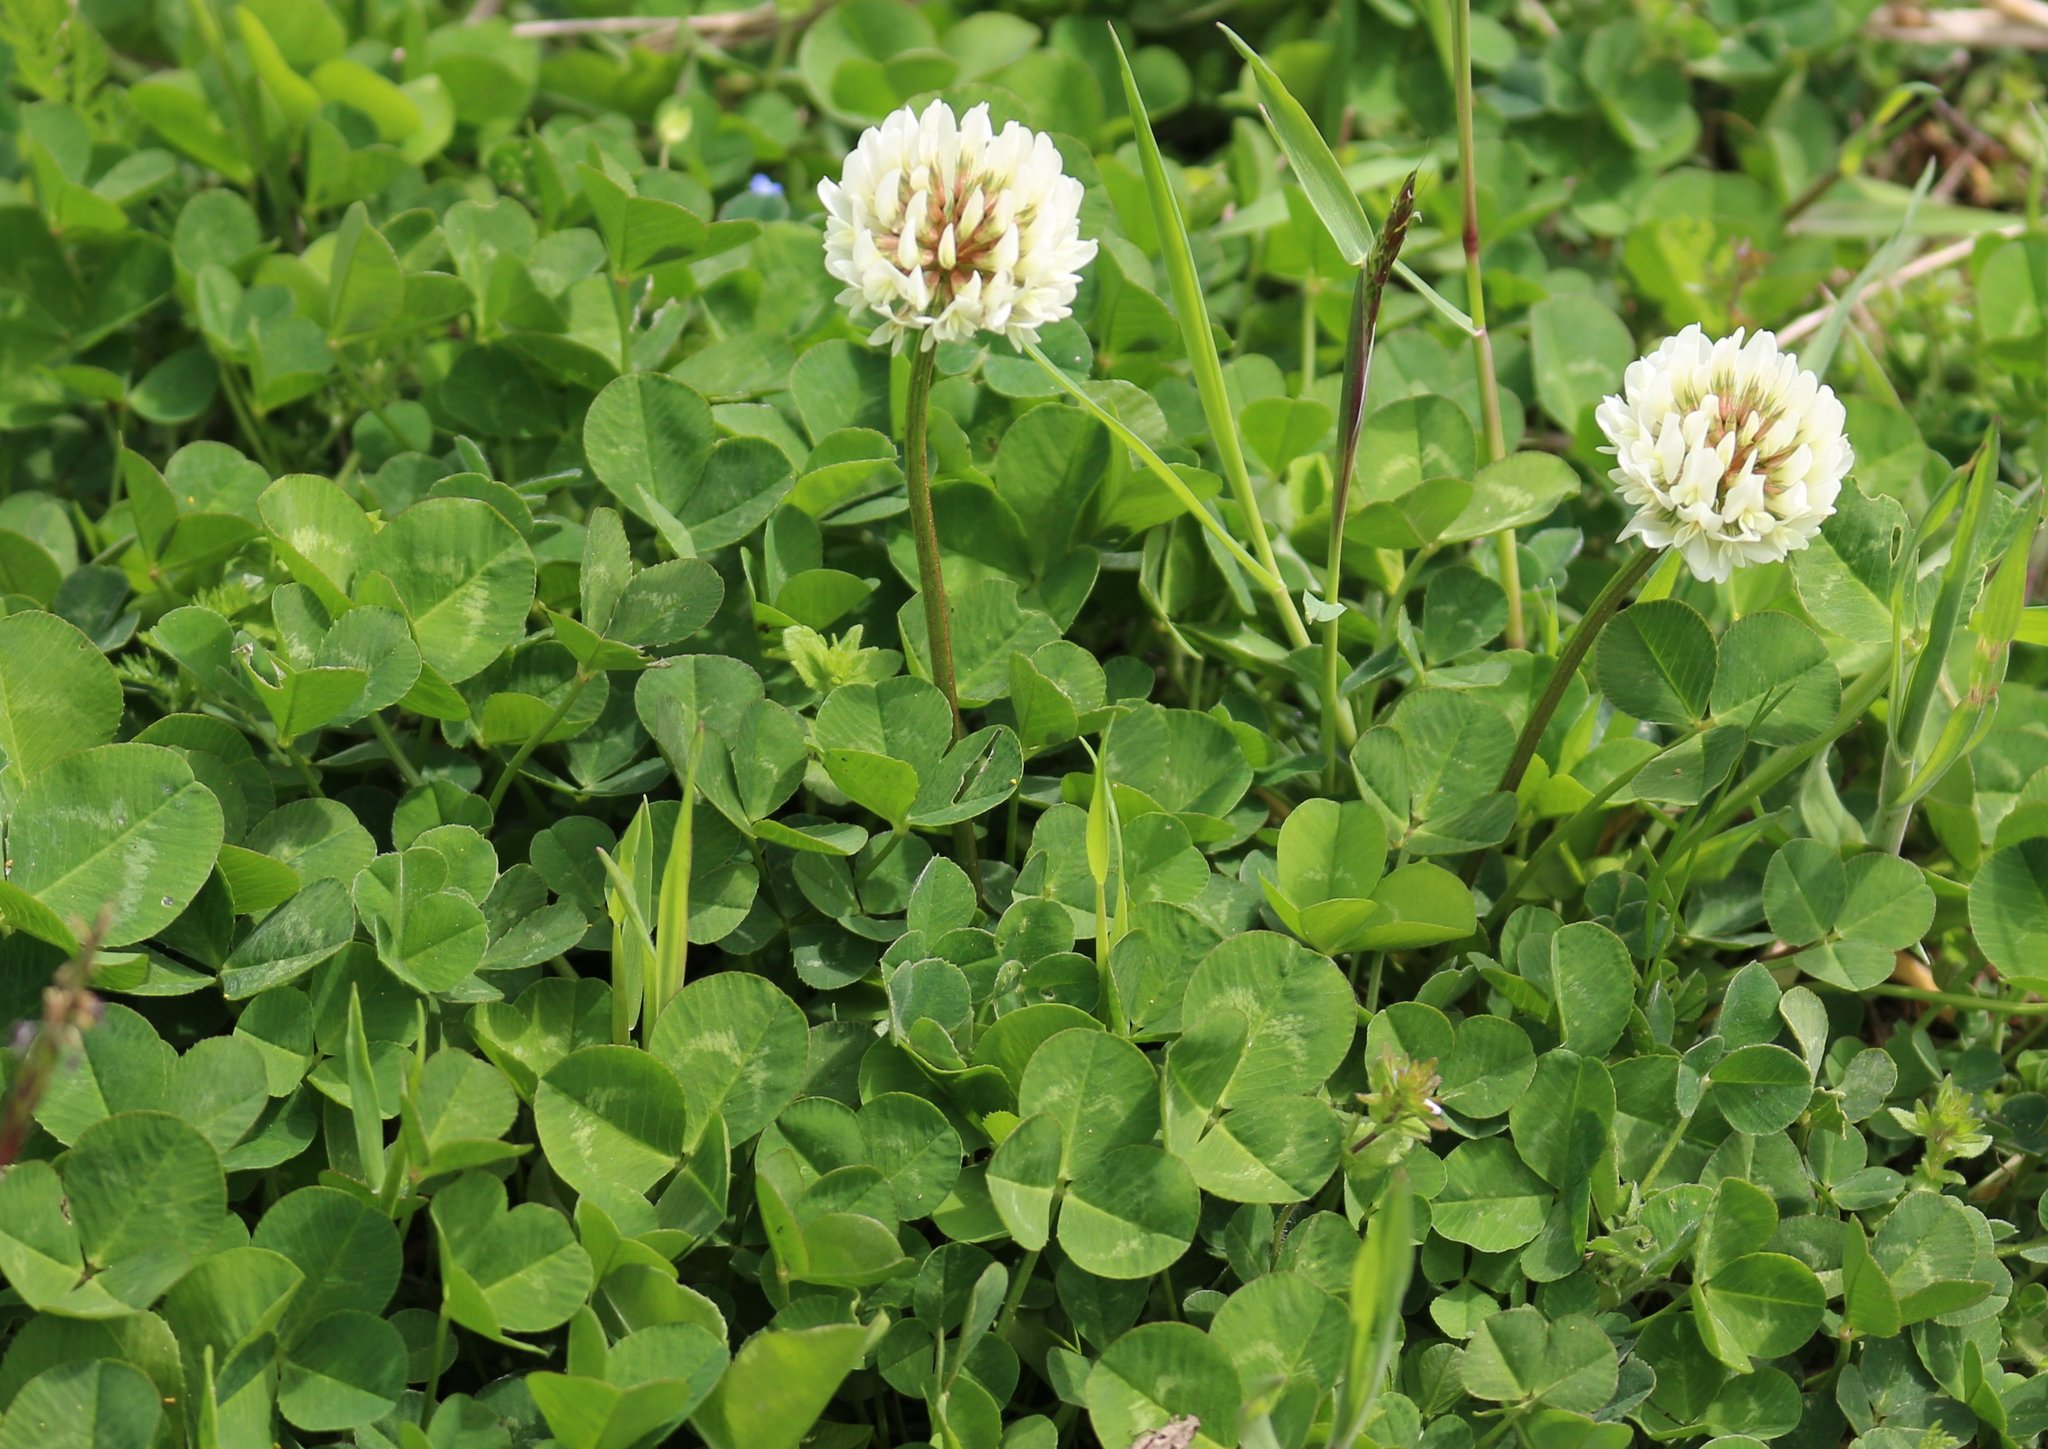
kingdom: Plantae
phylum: Tracheophyta
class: Magnoliopsida
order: Fabales
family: Fabaceae
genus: Trifolium
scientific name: Trifolium repens
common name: White clover
